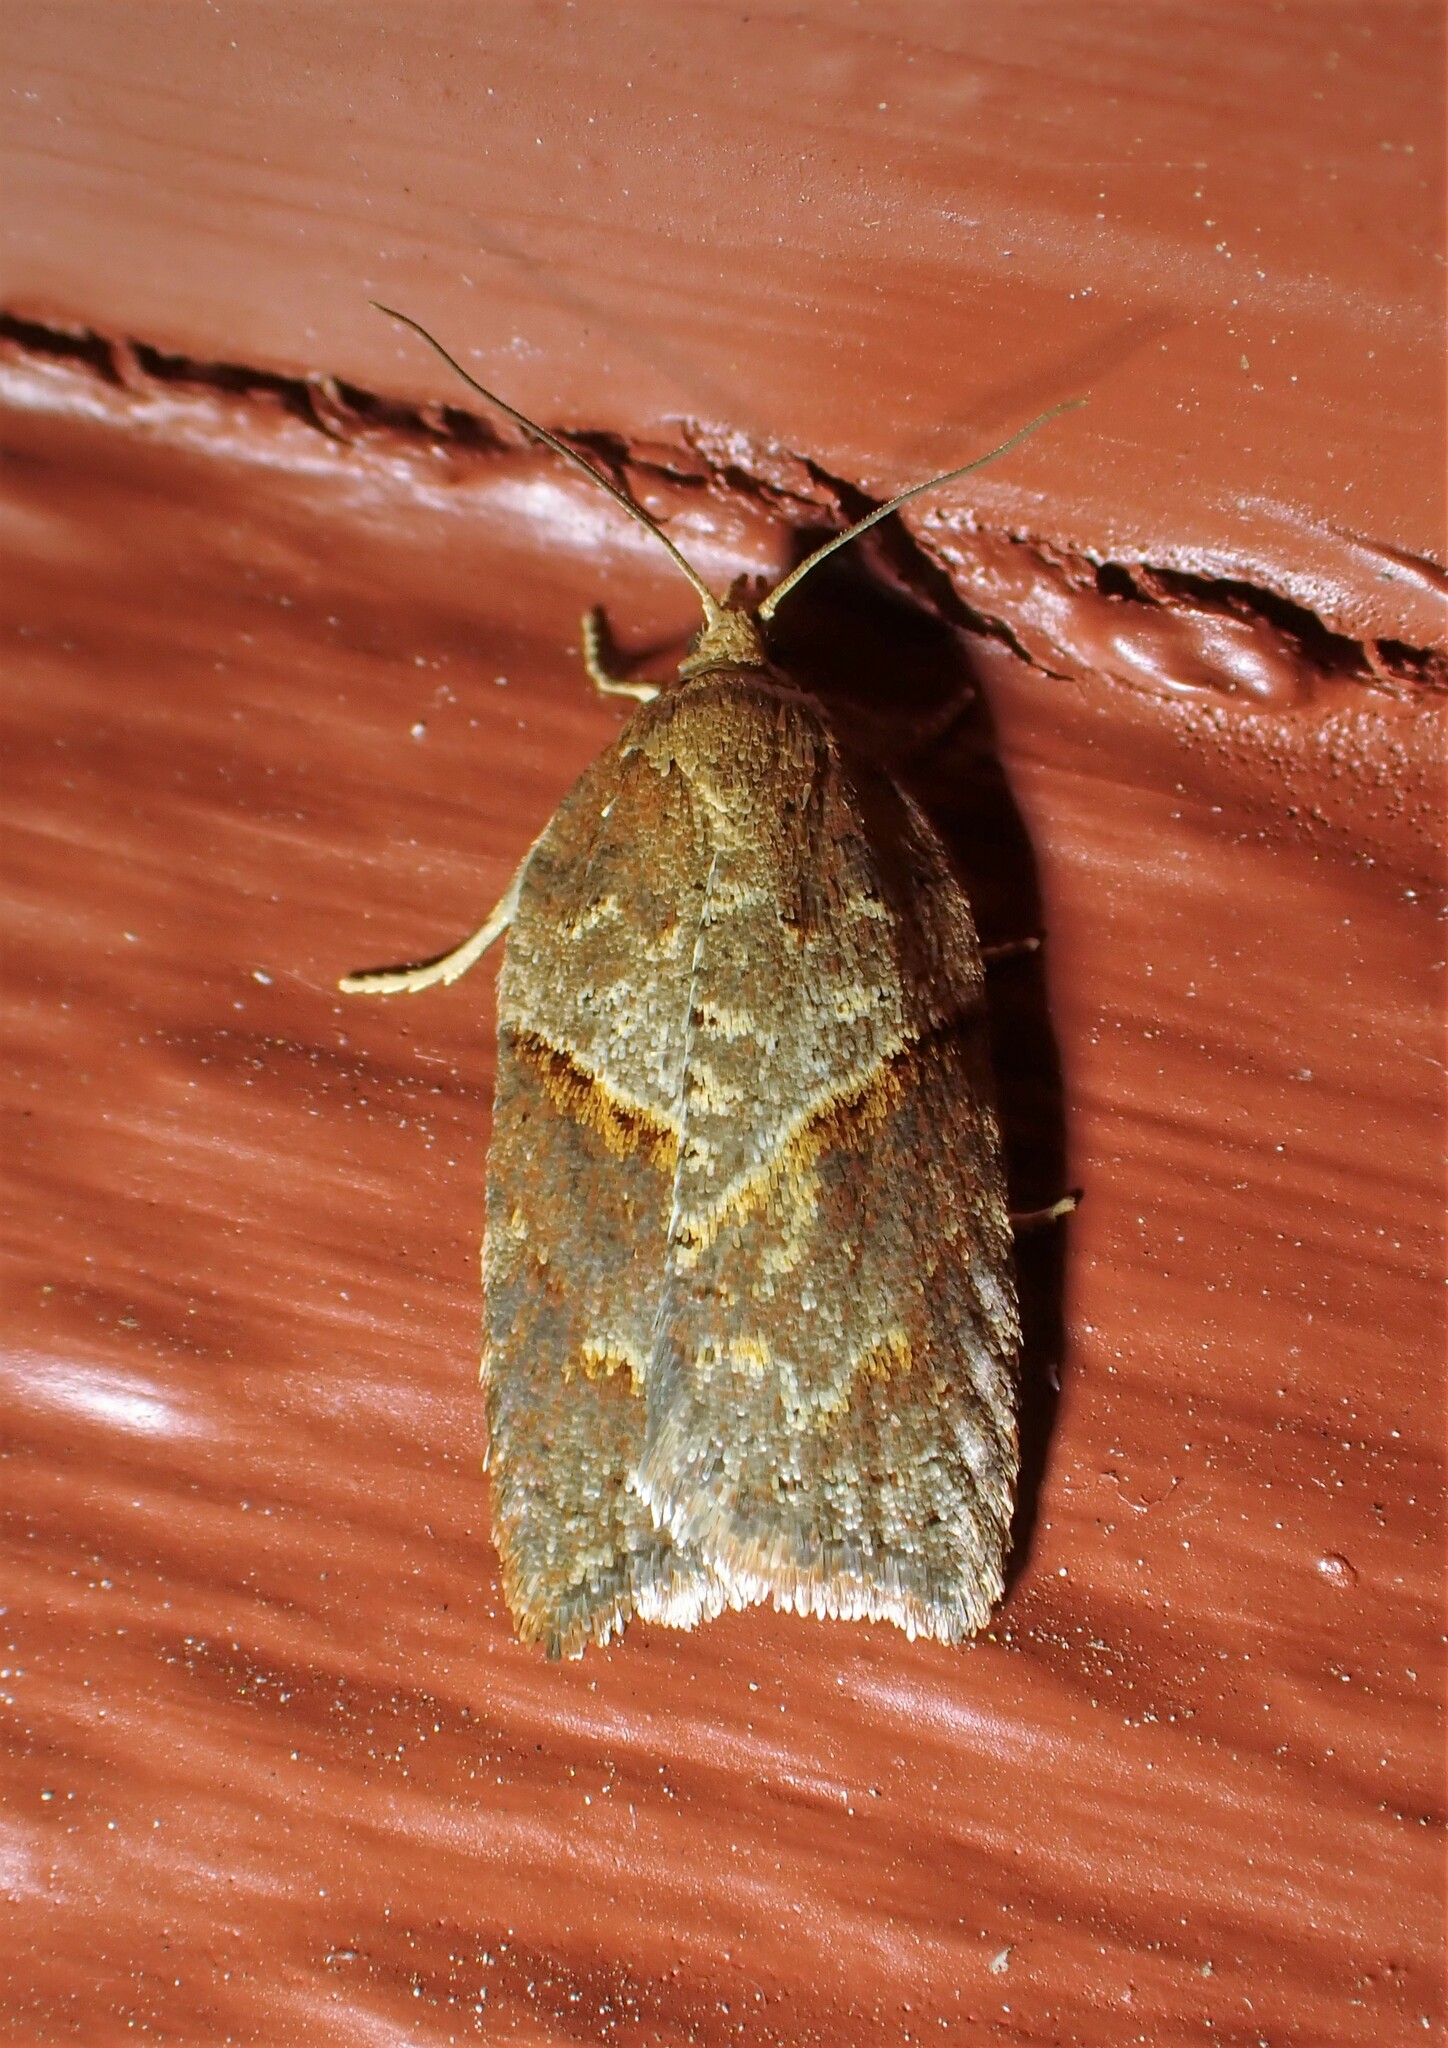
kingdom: Animalia
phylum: Arthropoda
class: Insecta
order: Lepidoptera
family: Tortricidae
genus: Acleris
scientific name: Acleris maccana
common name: Marbled button
